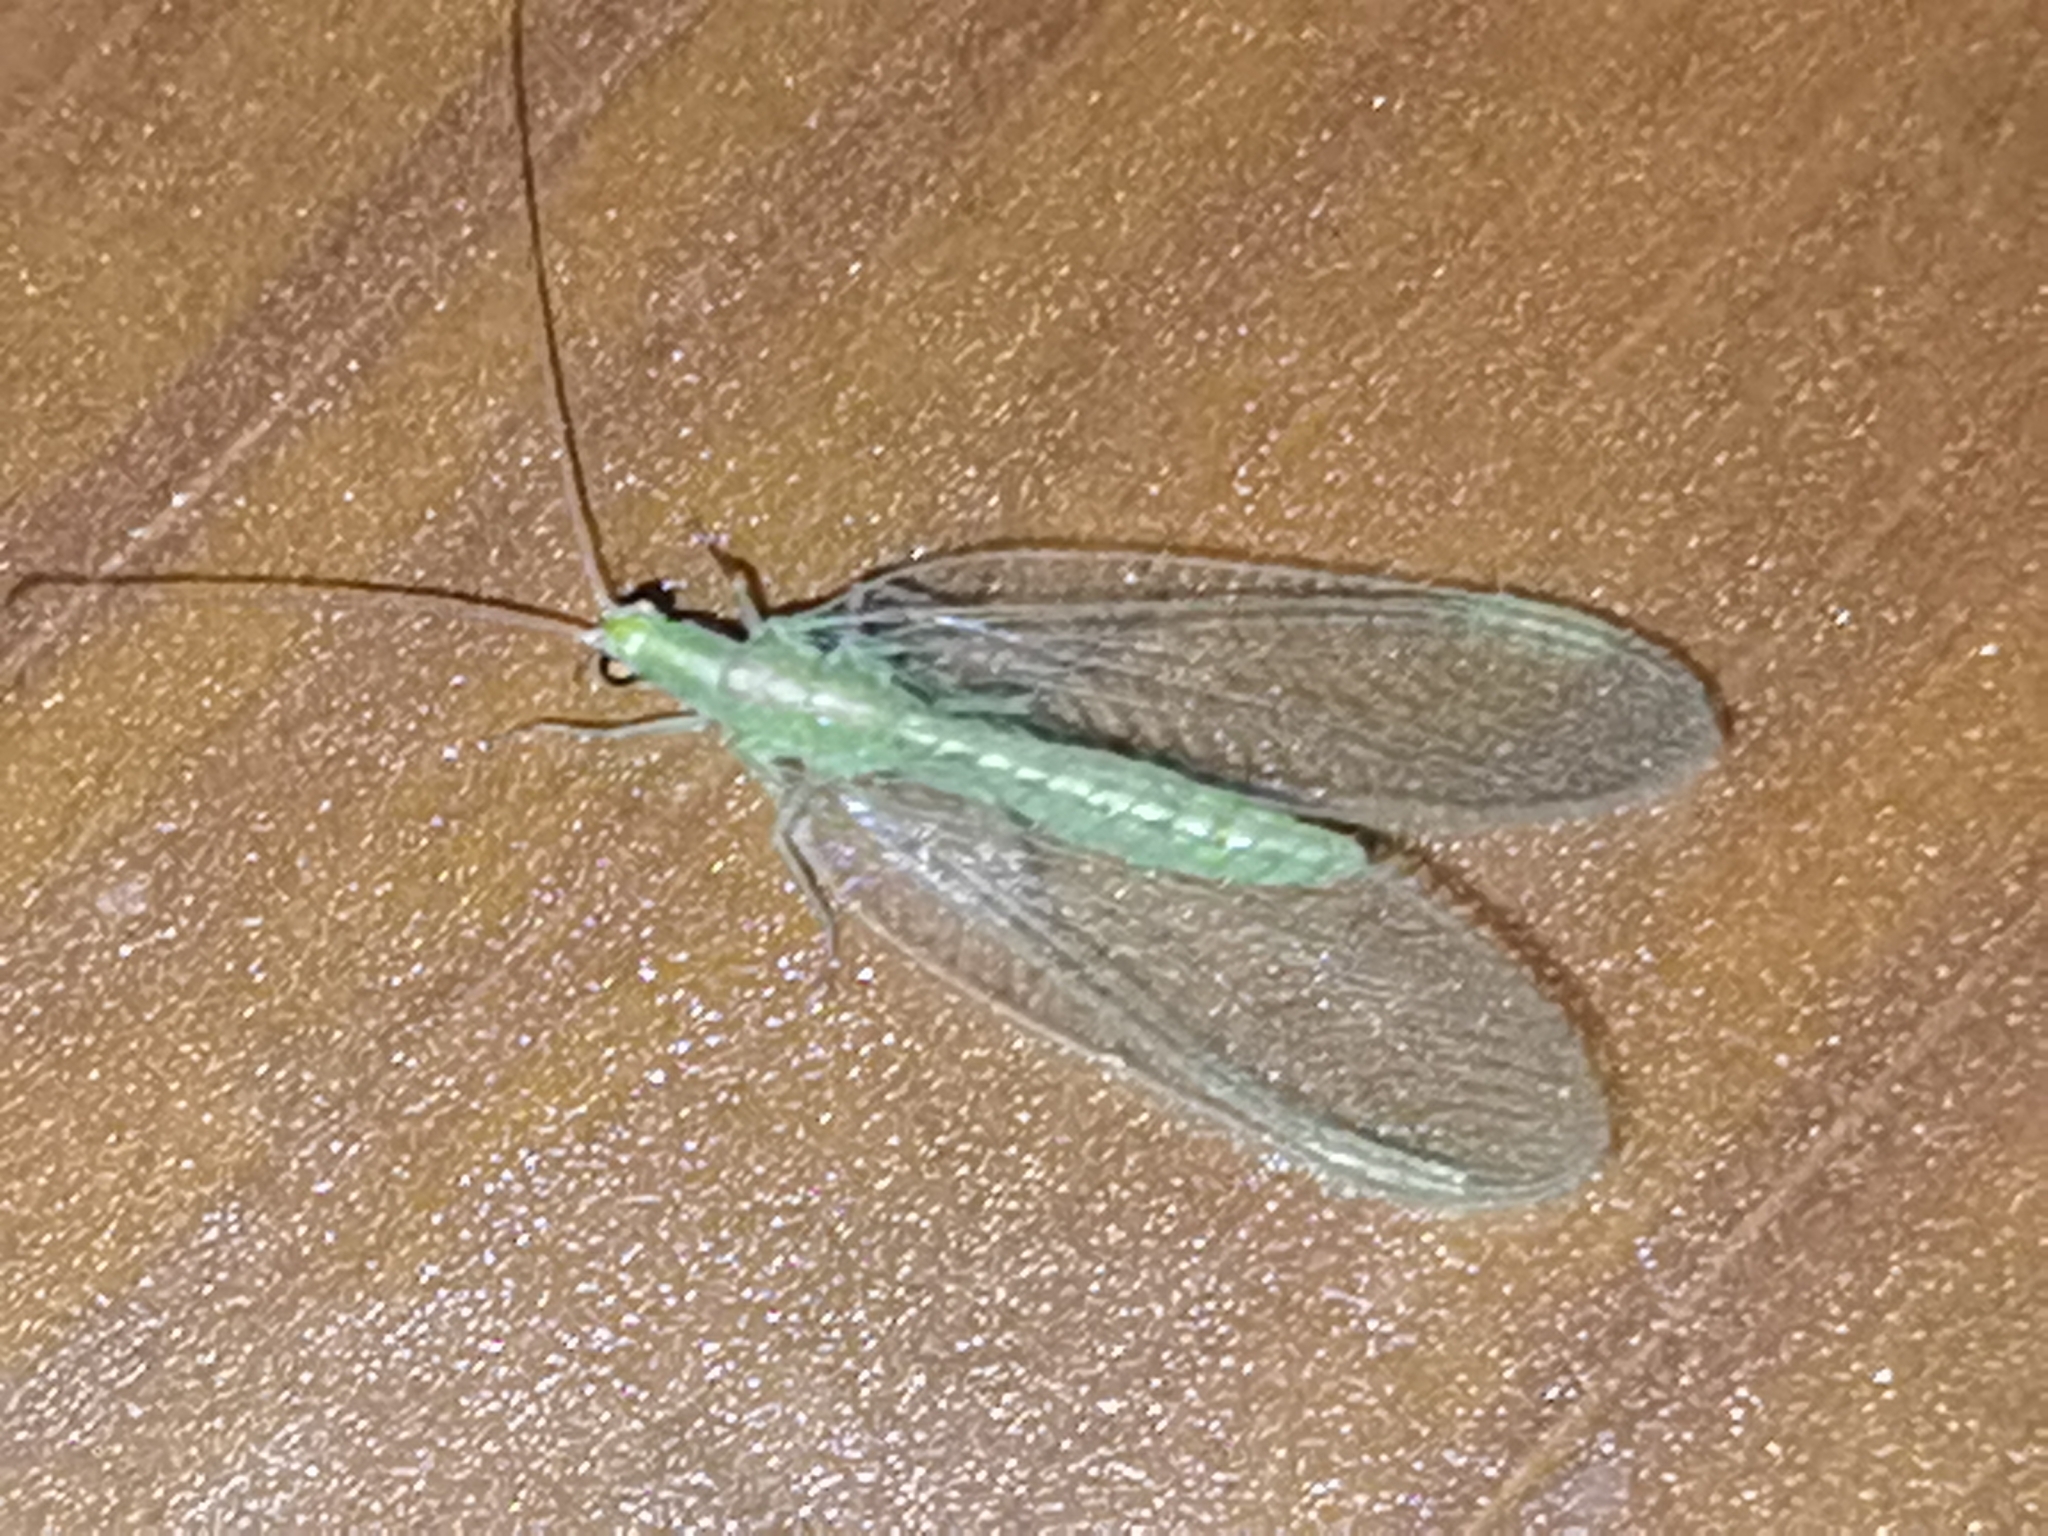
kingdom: Animalia
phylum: Arthropoda
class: Insecta
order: Neuroptera
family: Chrysopidae
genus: Chrysoperla
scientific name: Chrysoperla carnea
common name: Common green lacewing
